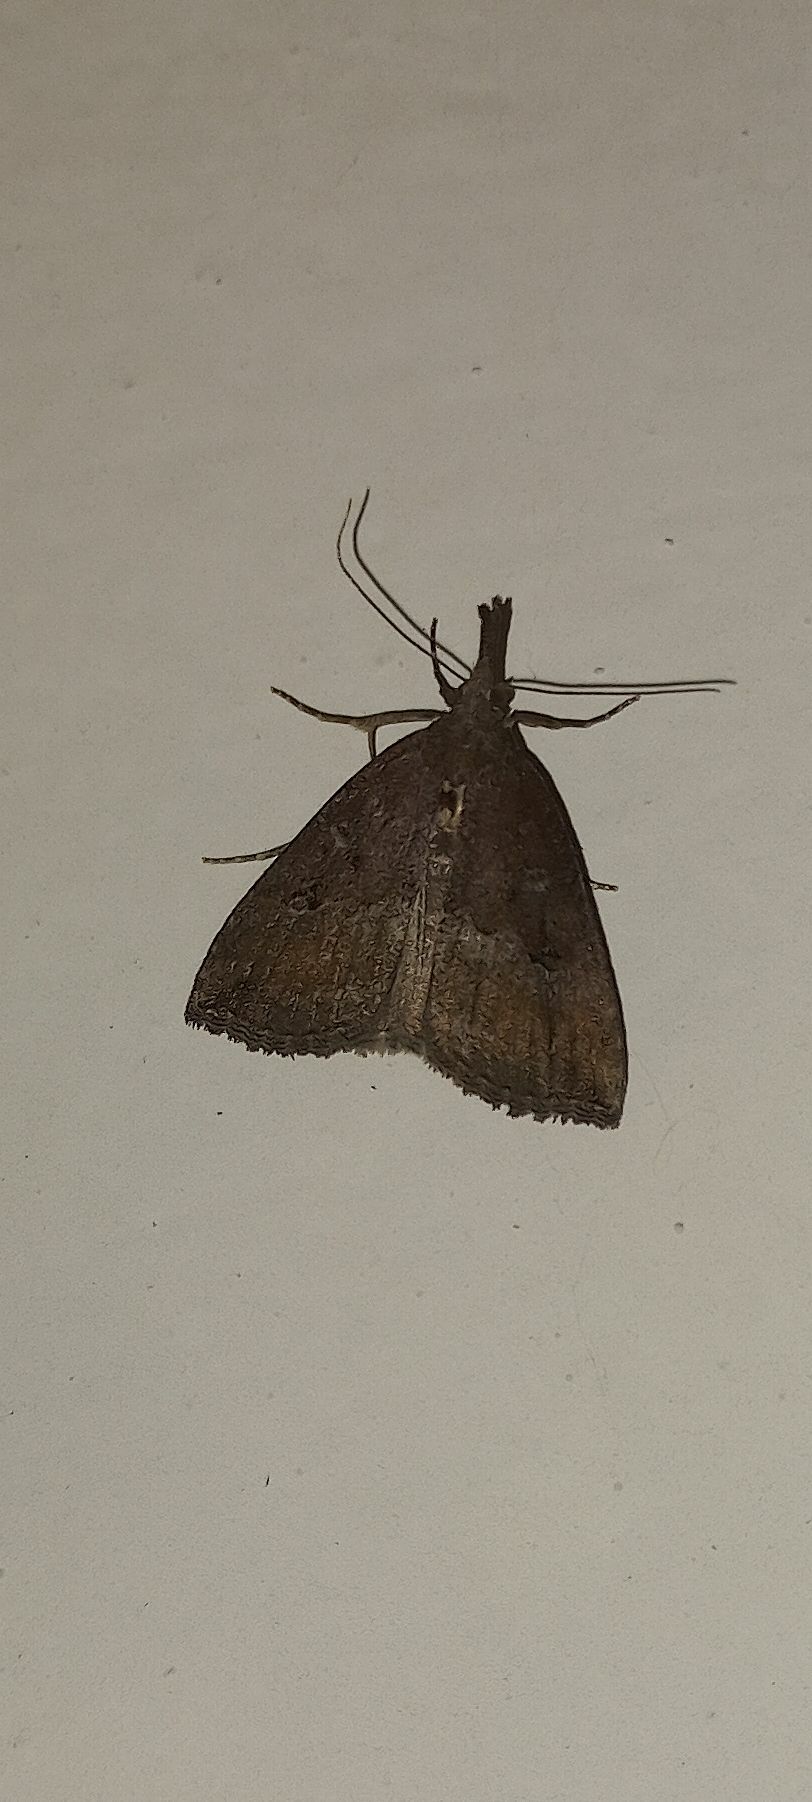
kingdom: Animalia
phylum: Arthropoda
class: Insecta
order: Lepidoptera
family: Erebidae
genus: Hypena
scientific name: Hypena rostralis
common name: Buttoned snout
